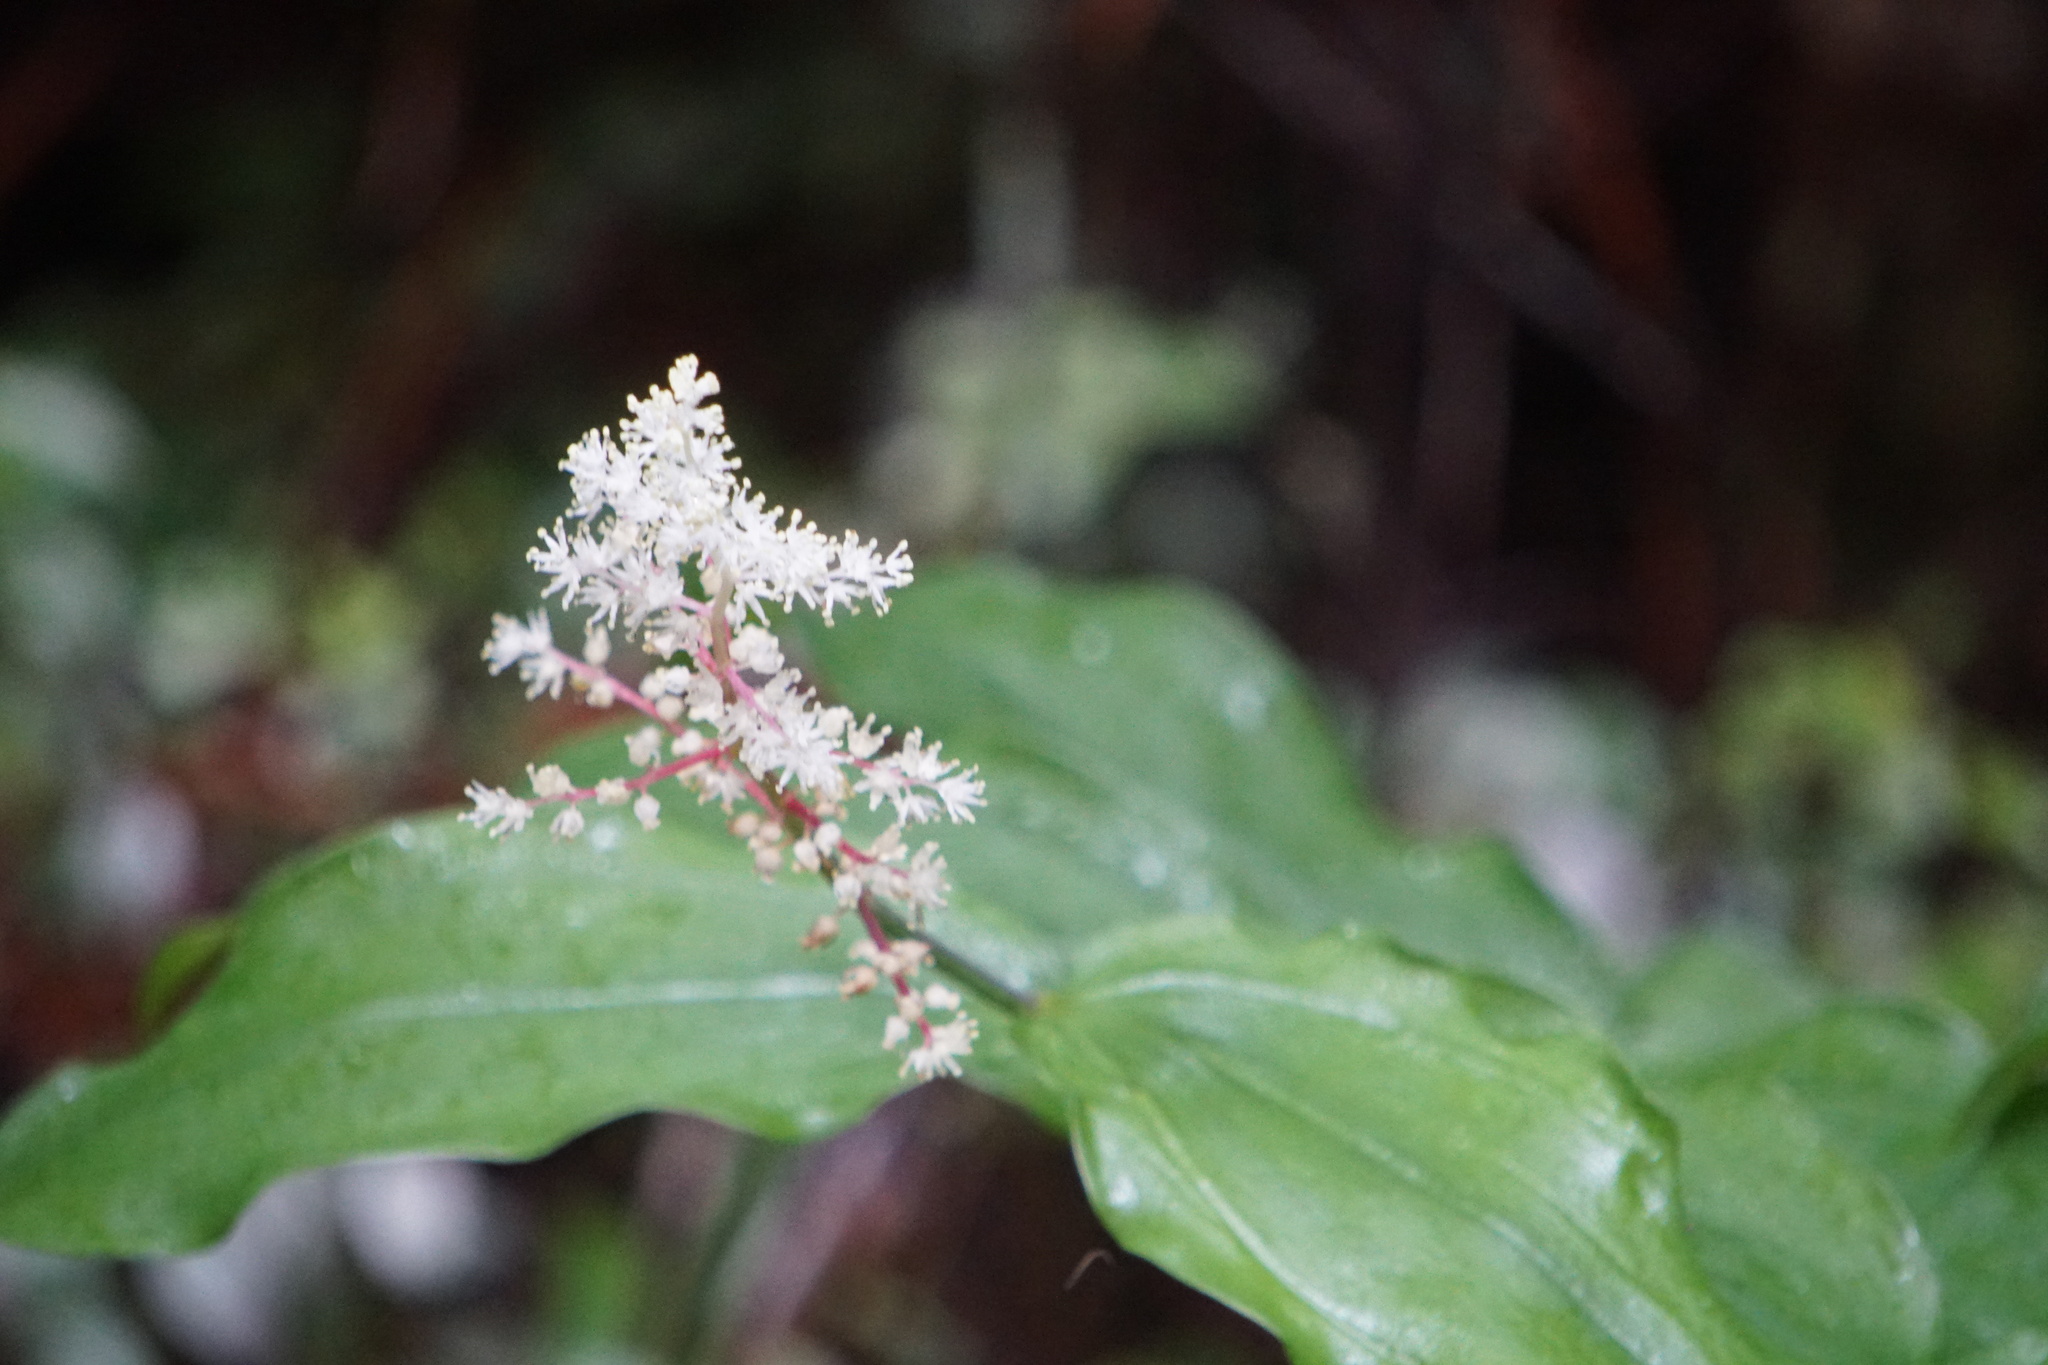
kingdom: Plantae
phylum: Tracheophyta
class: Liliopsida
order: Asparagales
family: Asparagaceae
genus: Maianthemum
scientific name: Maianthemum racemosum
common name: False spikenard
